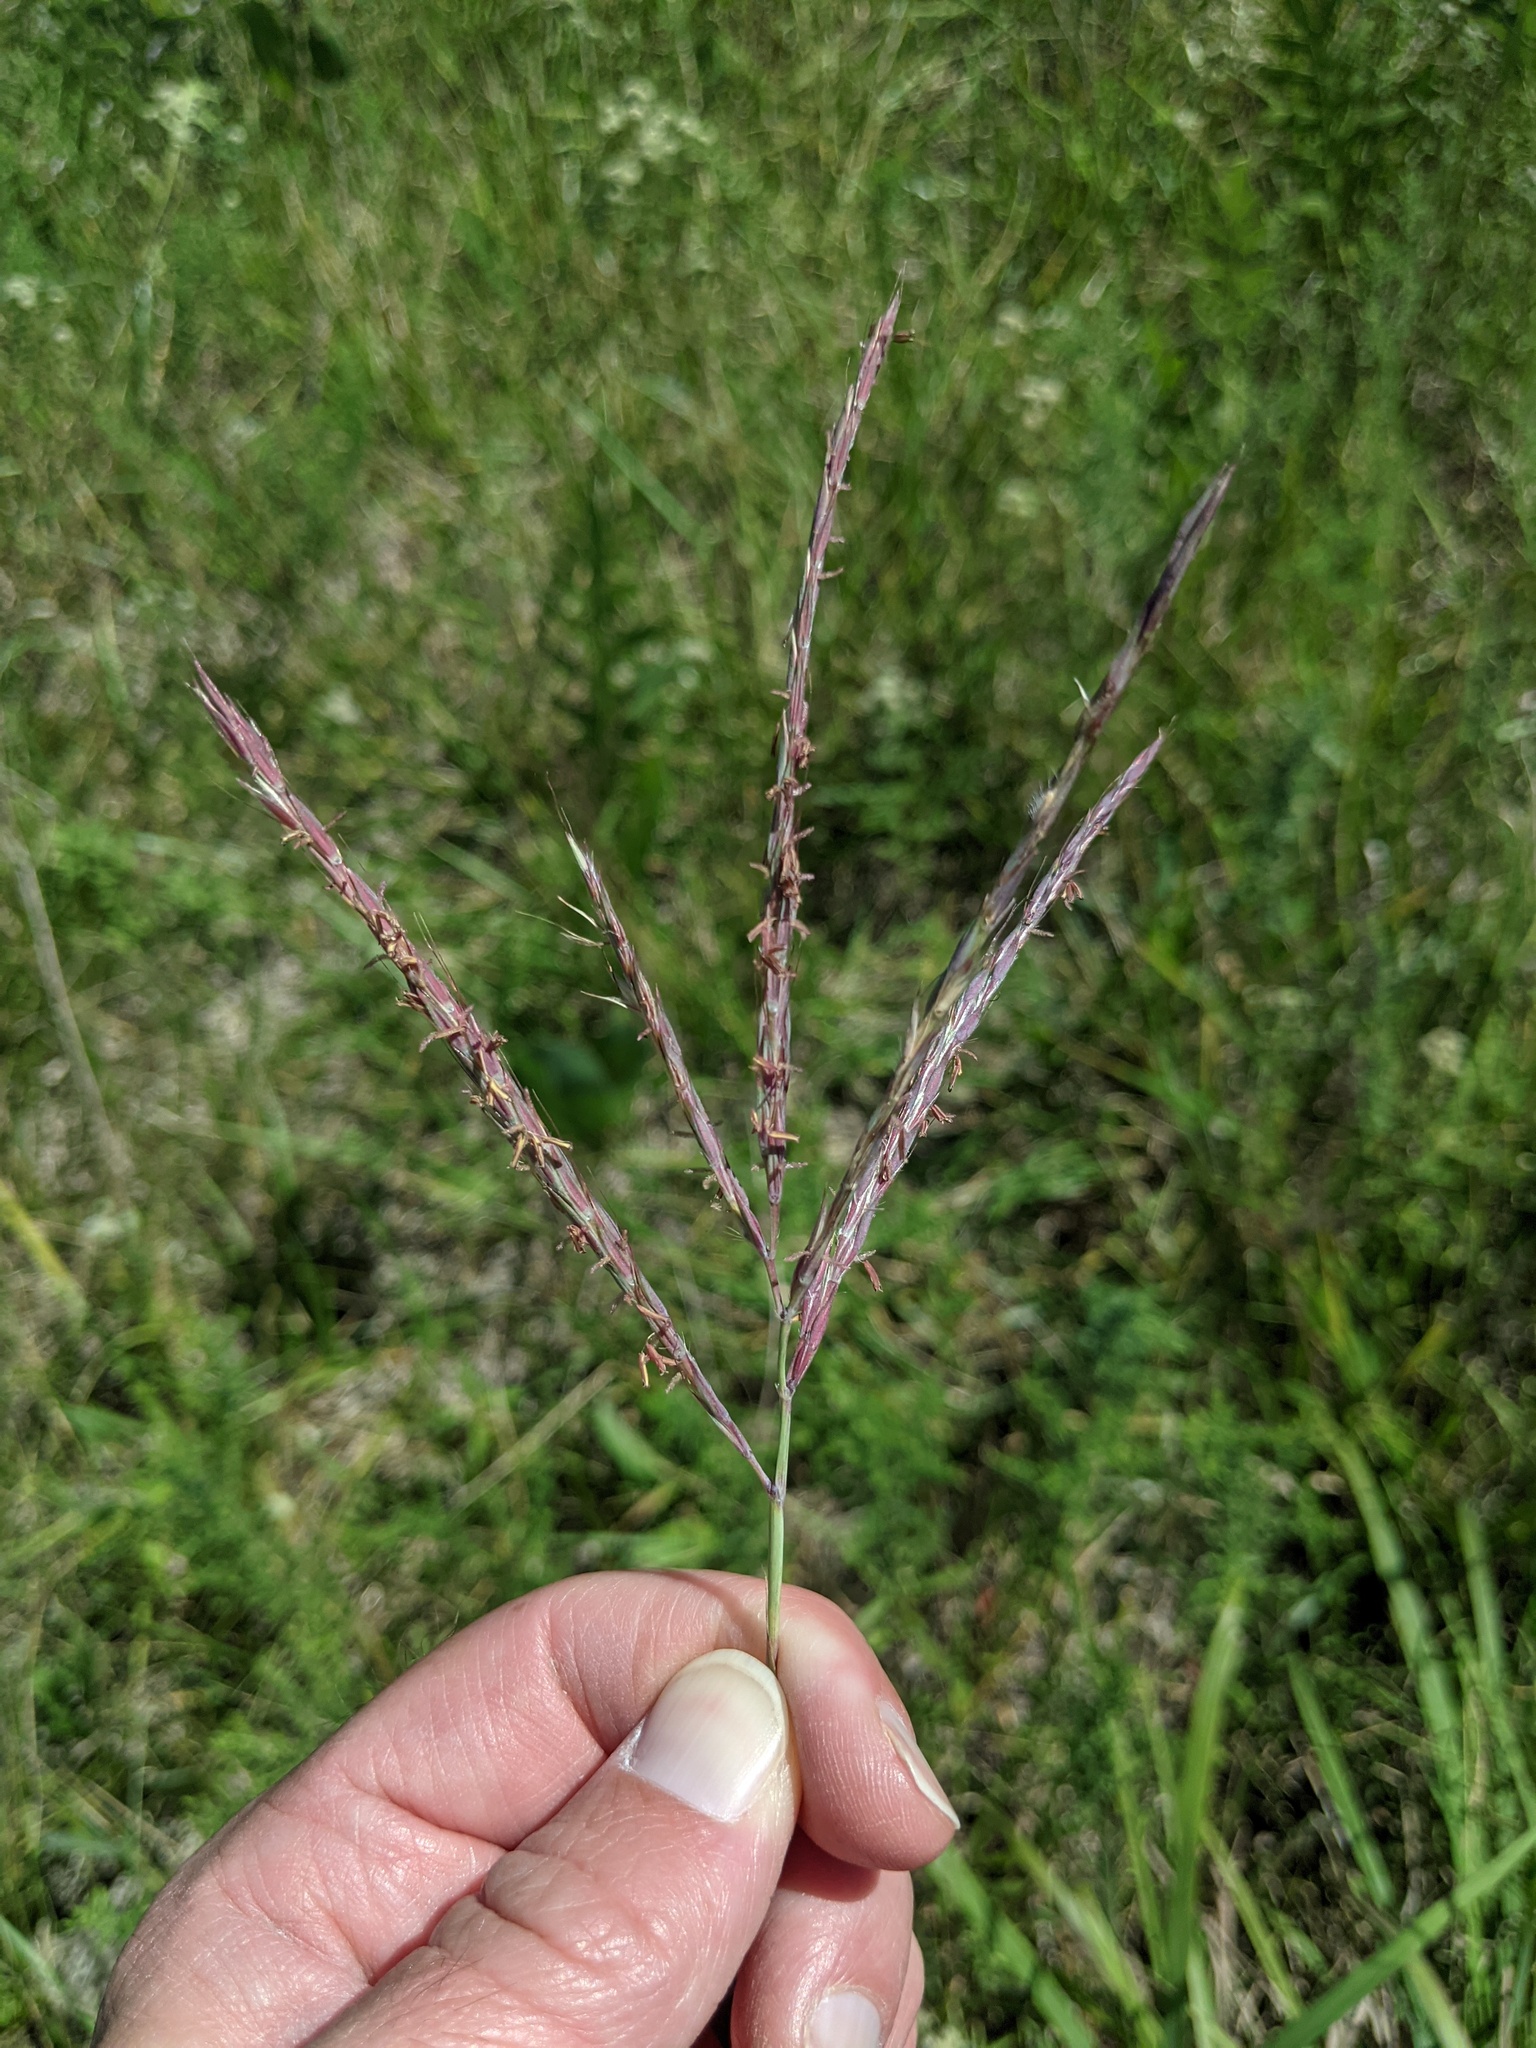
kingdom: Plantae
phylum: Tracheophyta
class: Liliopsida
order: Poales
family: Poaceae
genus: Andropogon
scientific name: Andropogon gerardi
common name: Big bluestem
